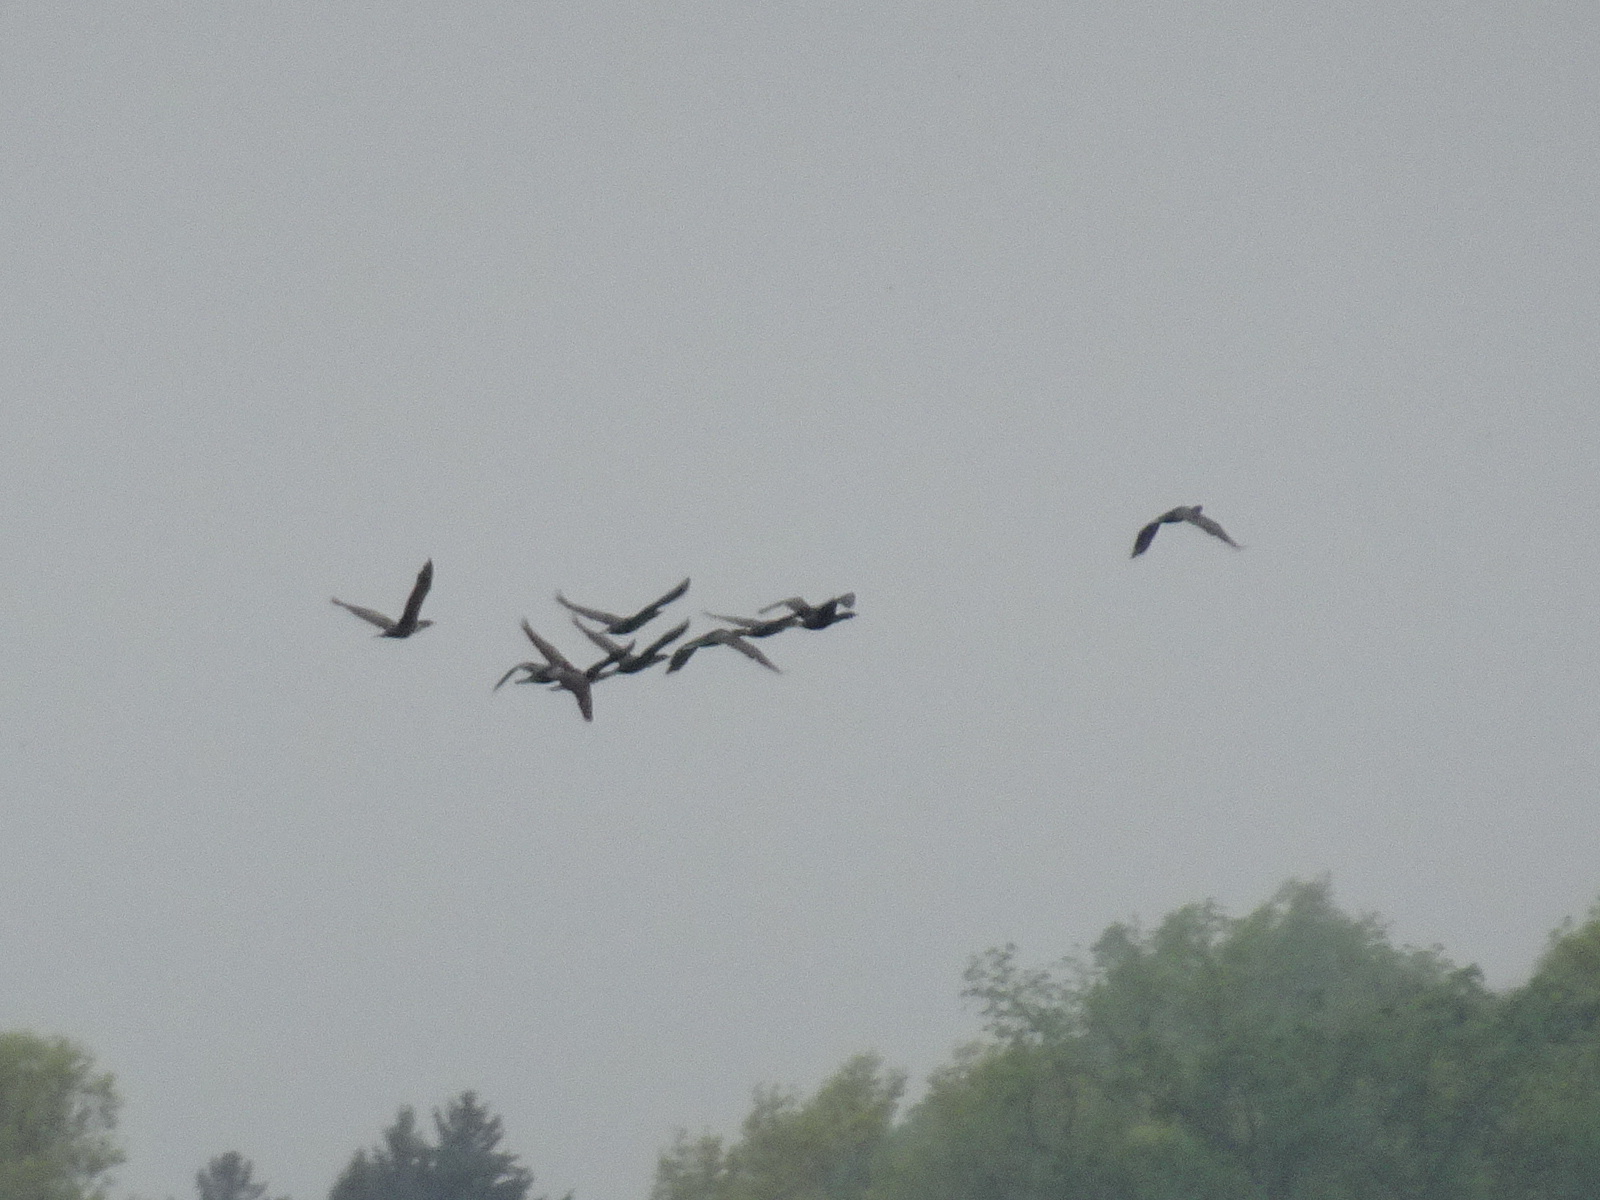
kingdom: Animalia
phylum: Chordata
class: Aves
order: Suliformes
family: Phalacrocoracidae
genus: Phalacrocorax
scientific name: Phalacrocorax auritus
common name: Double-crested cormorant
